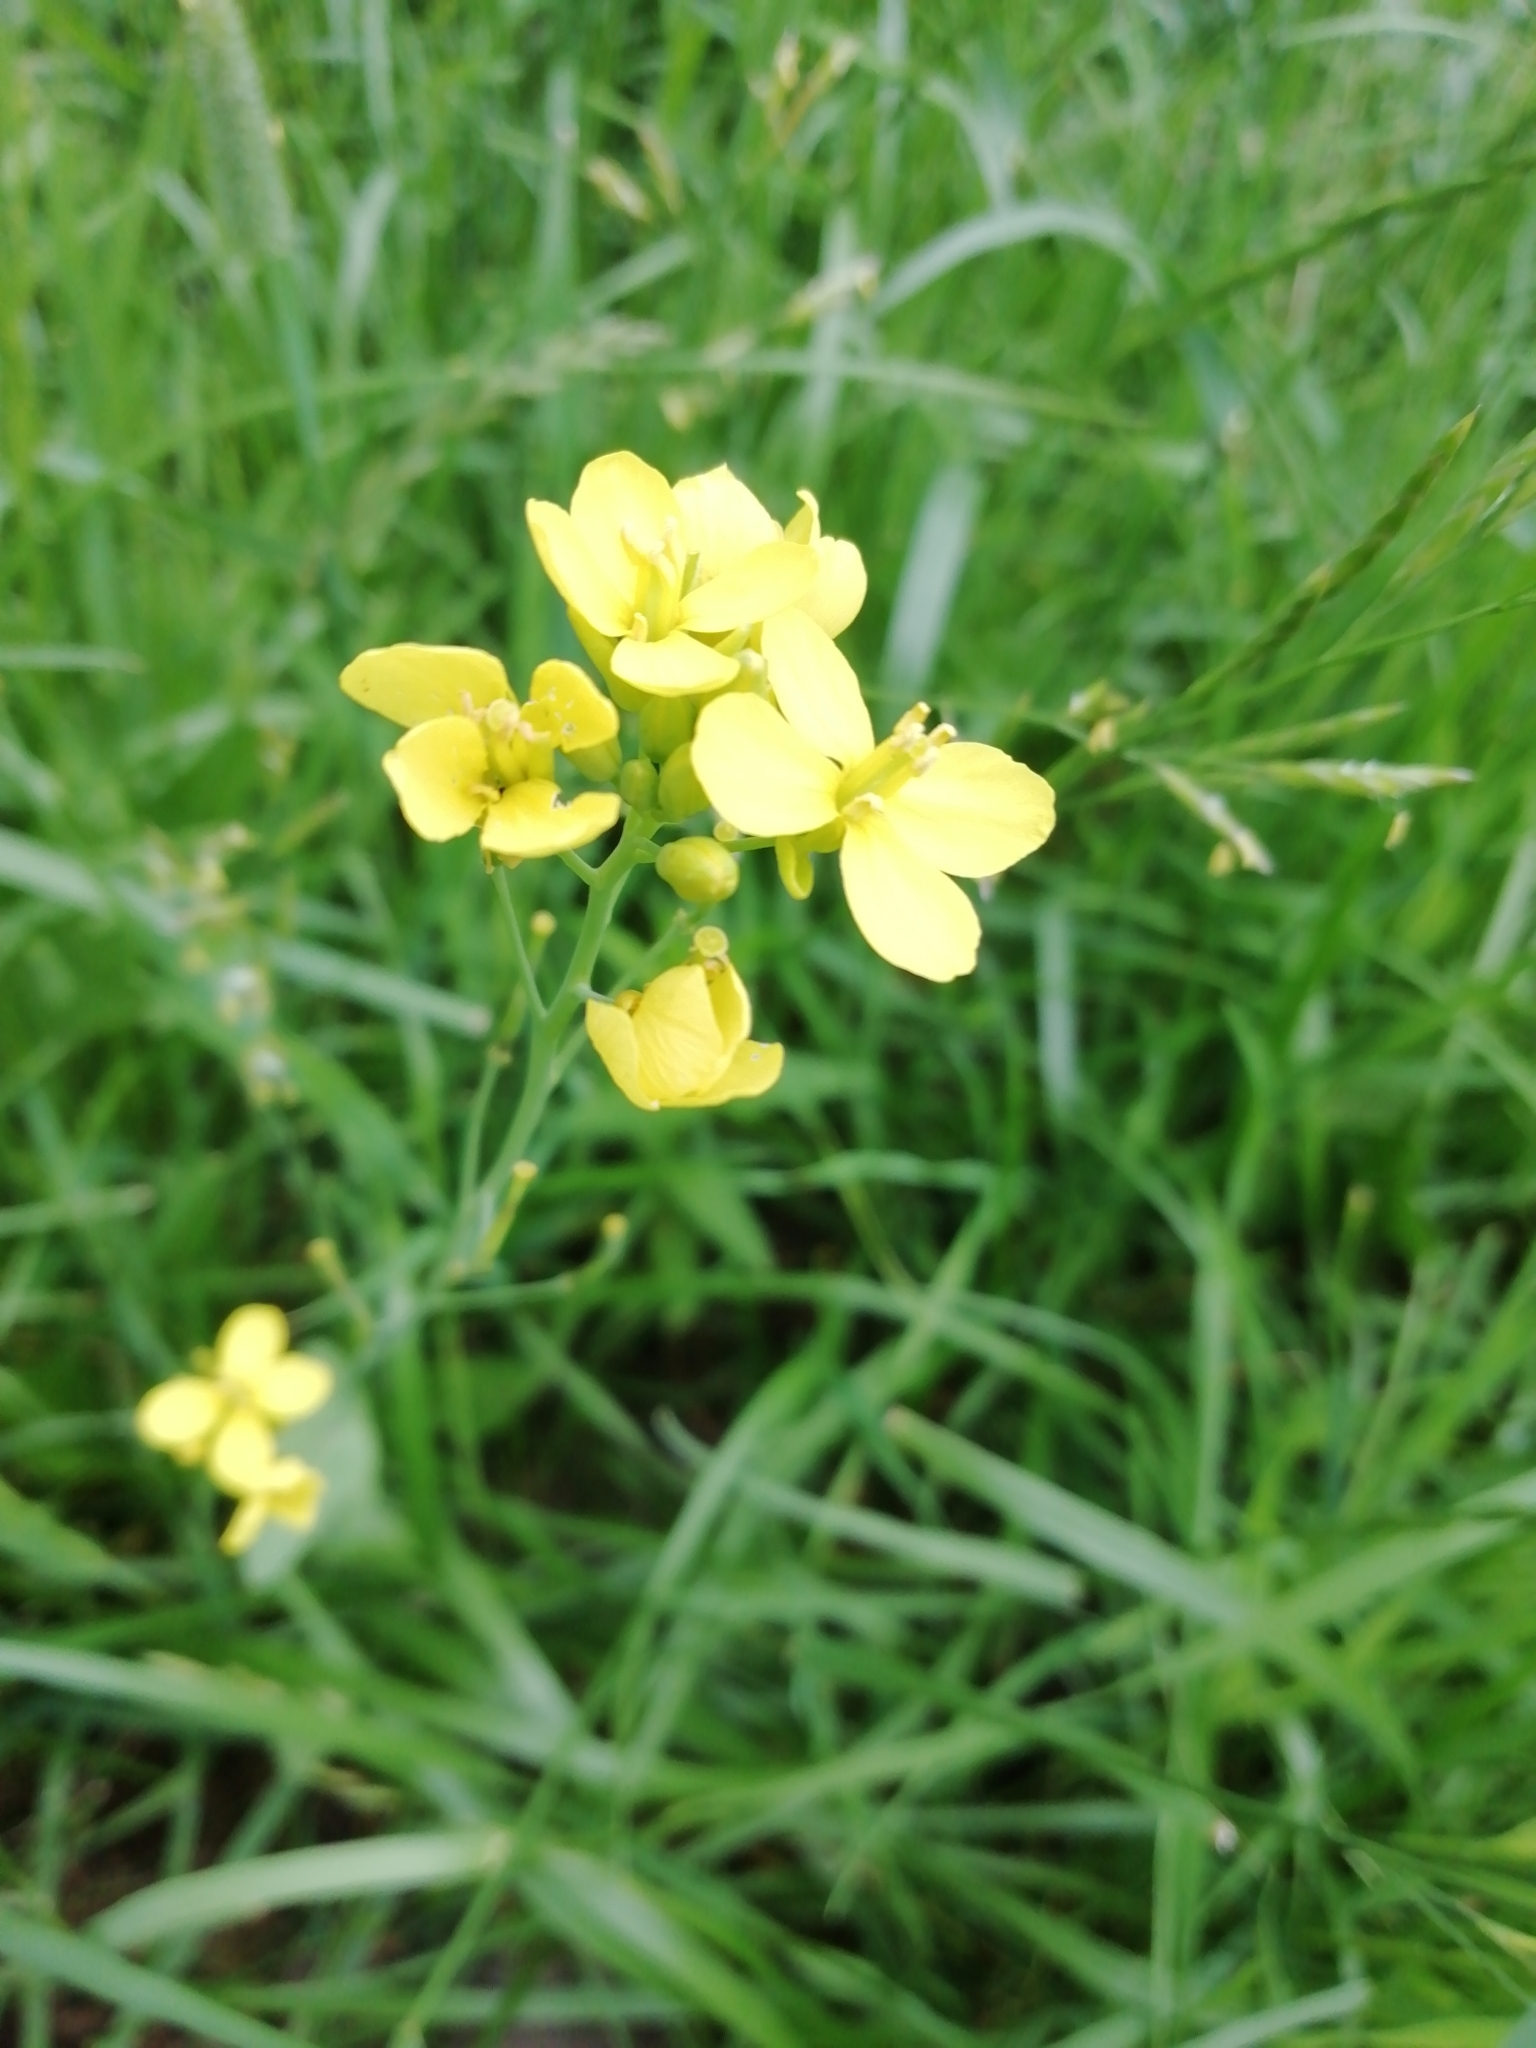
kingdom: Plantae
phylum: Tracheophyta
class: Magnoliopsida
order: Brassicales
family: Brassicaceae
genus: Bunias
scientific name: Bunias orientalis
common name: Warty-cabbage
